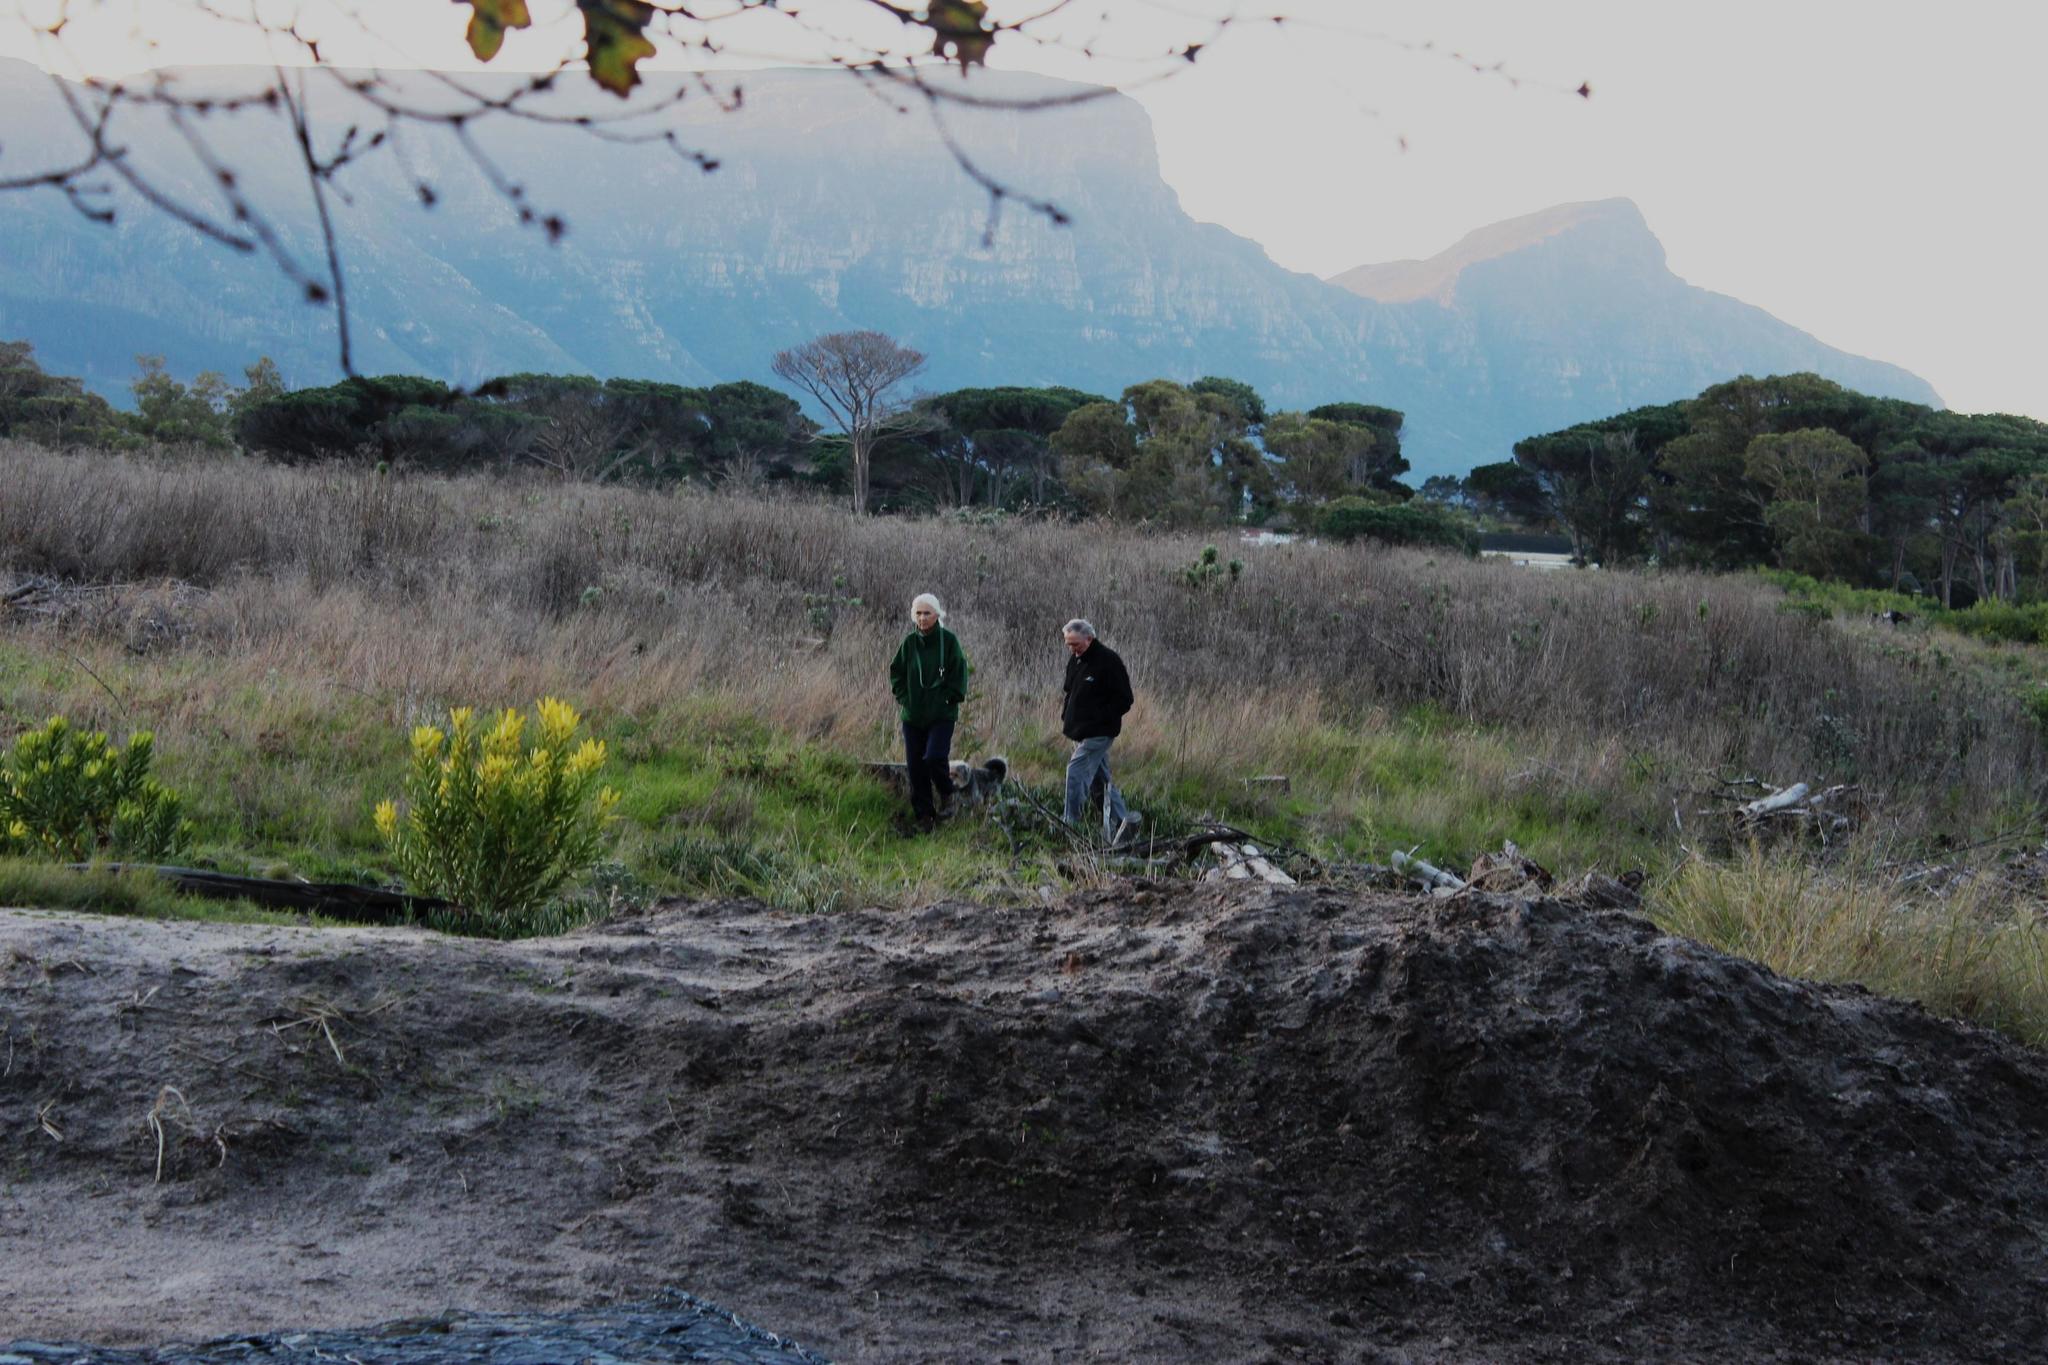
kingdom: Plantae
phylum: Tracheophyta
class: Magnoliopsida
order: Asterales
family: Asteraceae
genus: Senecio
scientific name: Senecio pterophorus
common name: Shoddy ragwort
